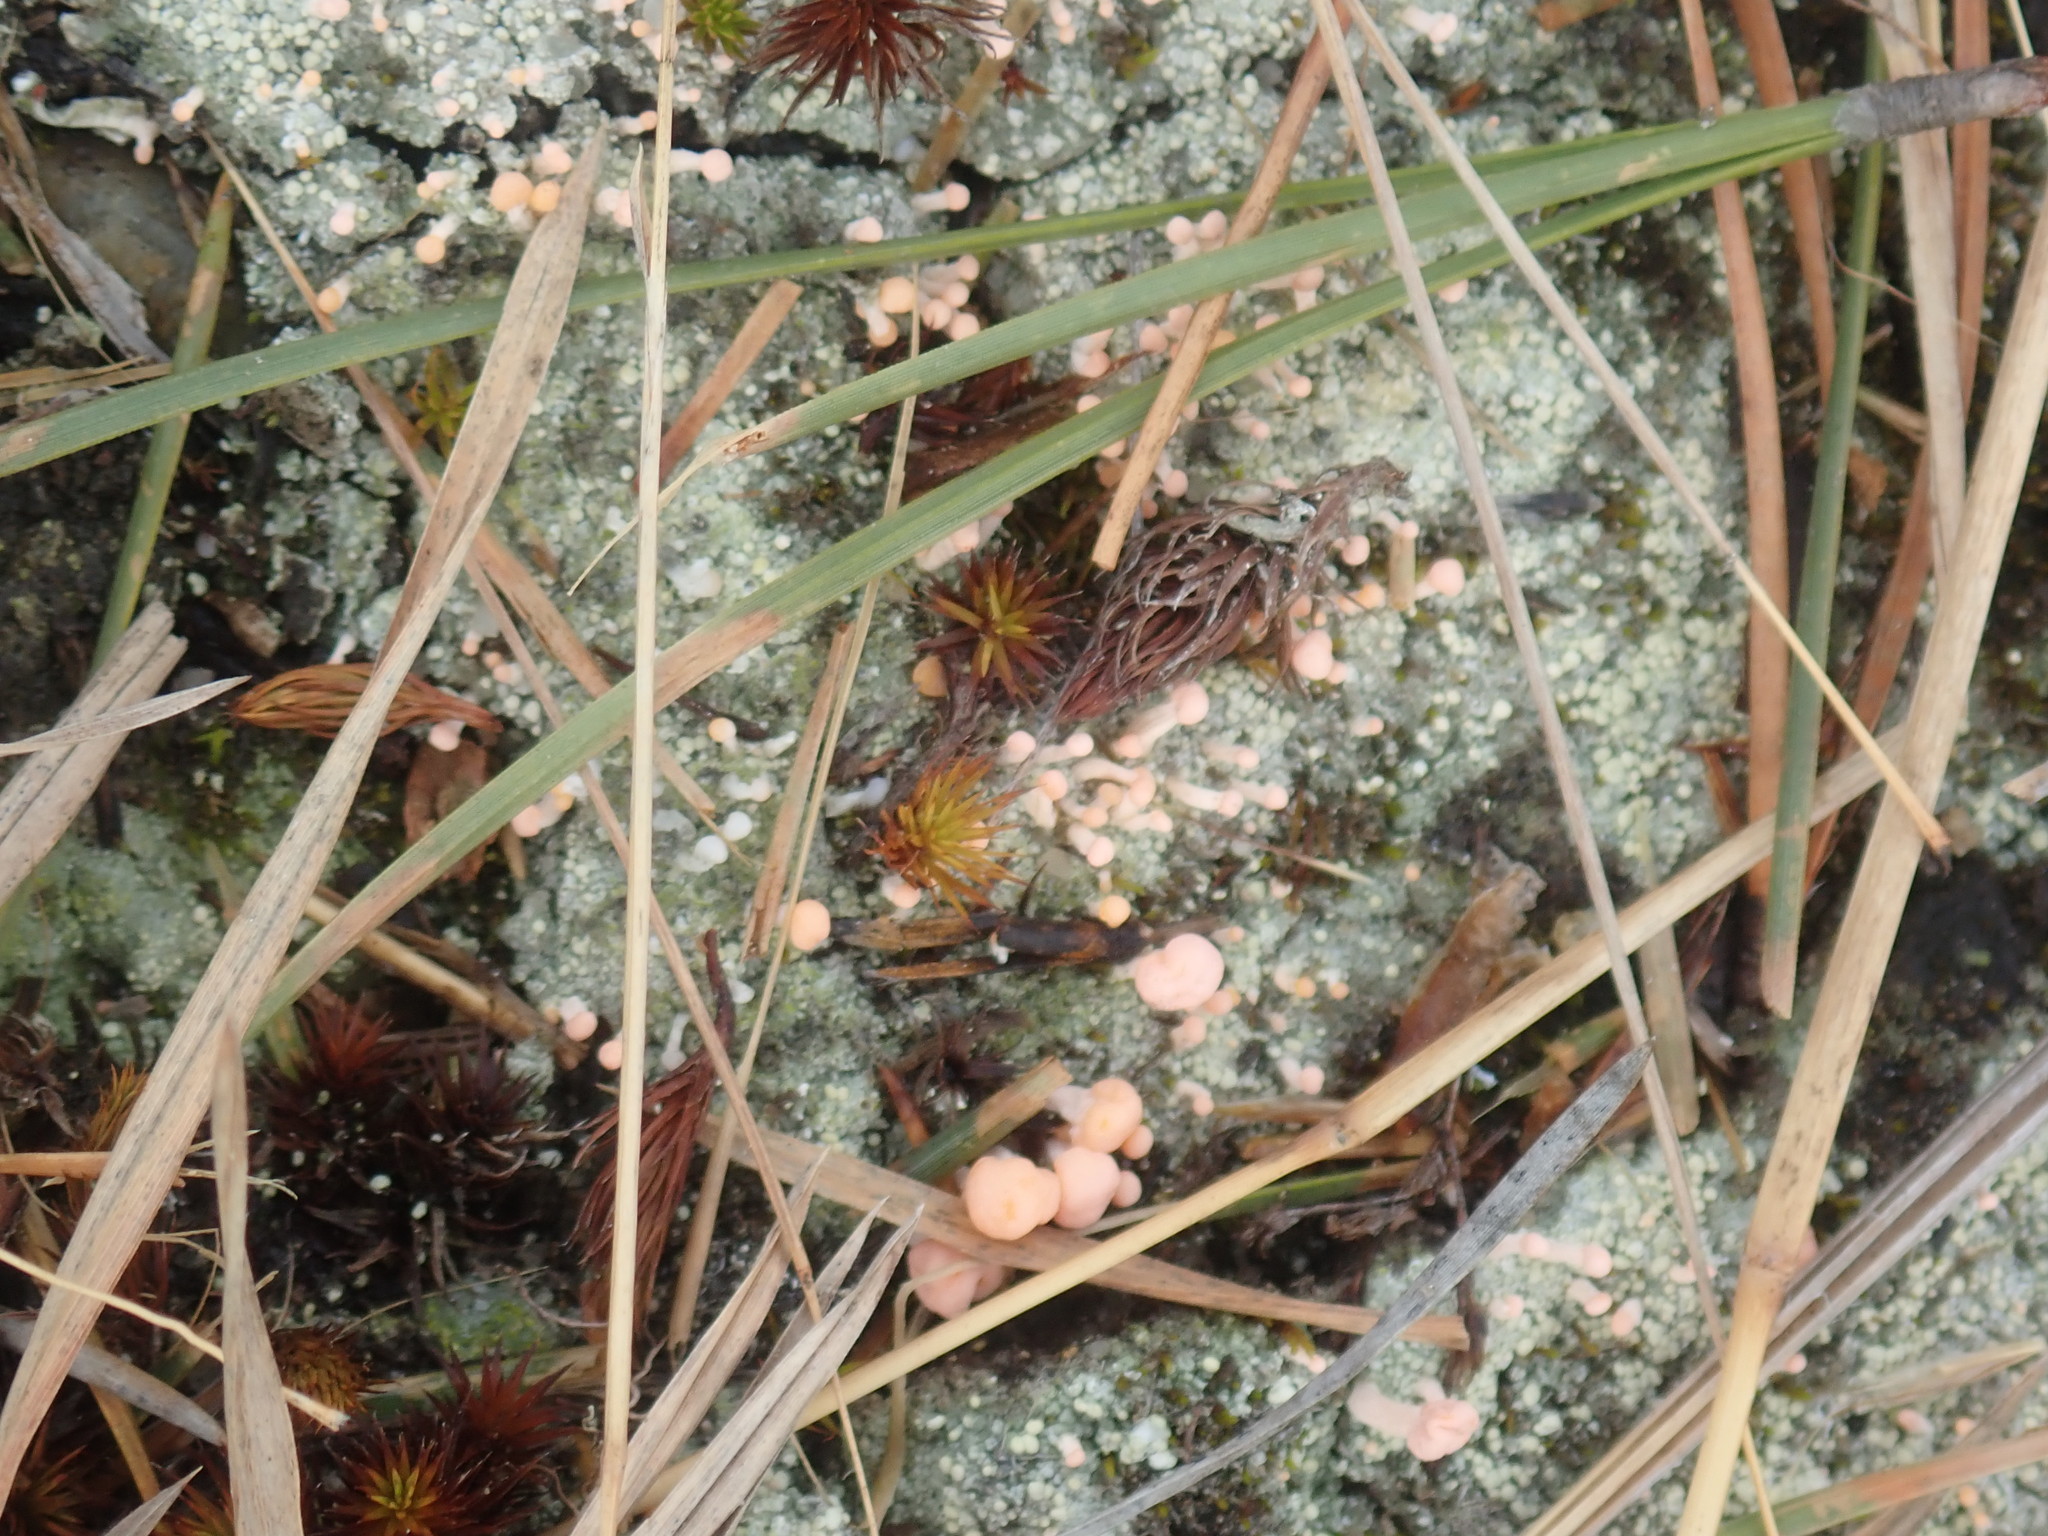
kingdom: Fungi
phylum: Ascomycota
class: Lecanoromycetes
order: Pertusariales
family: Icmadophilaceae
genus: Dibaeis
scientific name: Dibaeis baeomyces
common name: Pink earth lichen
